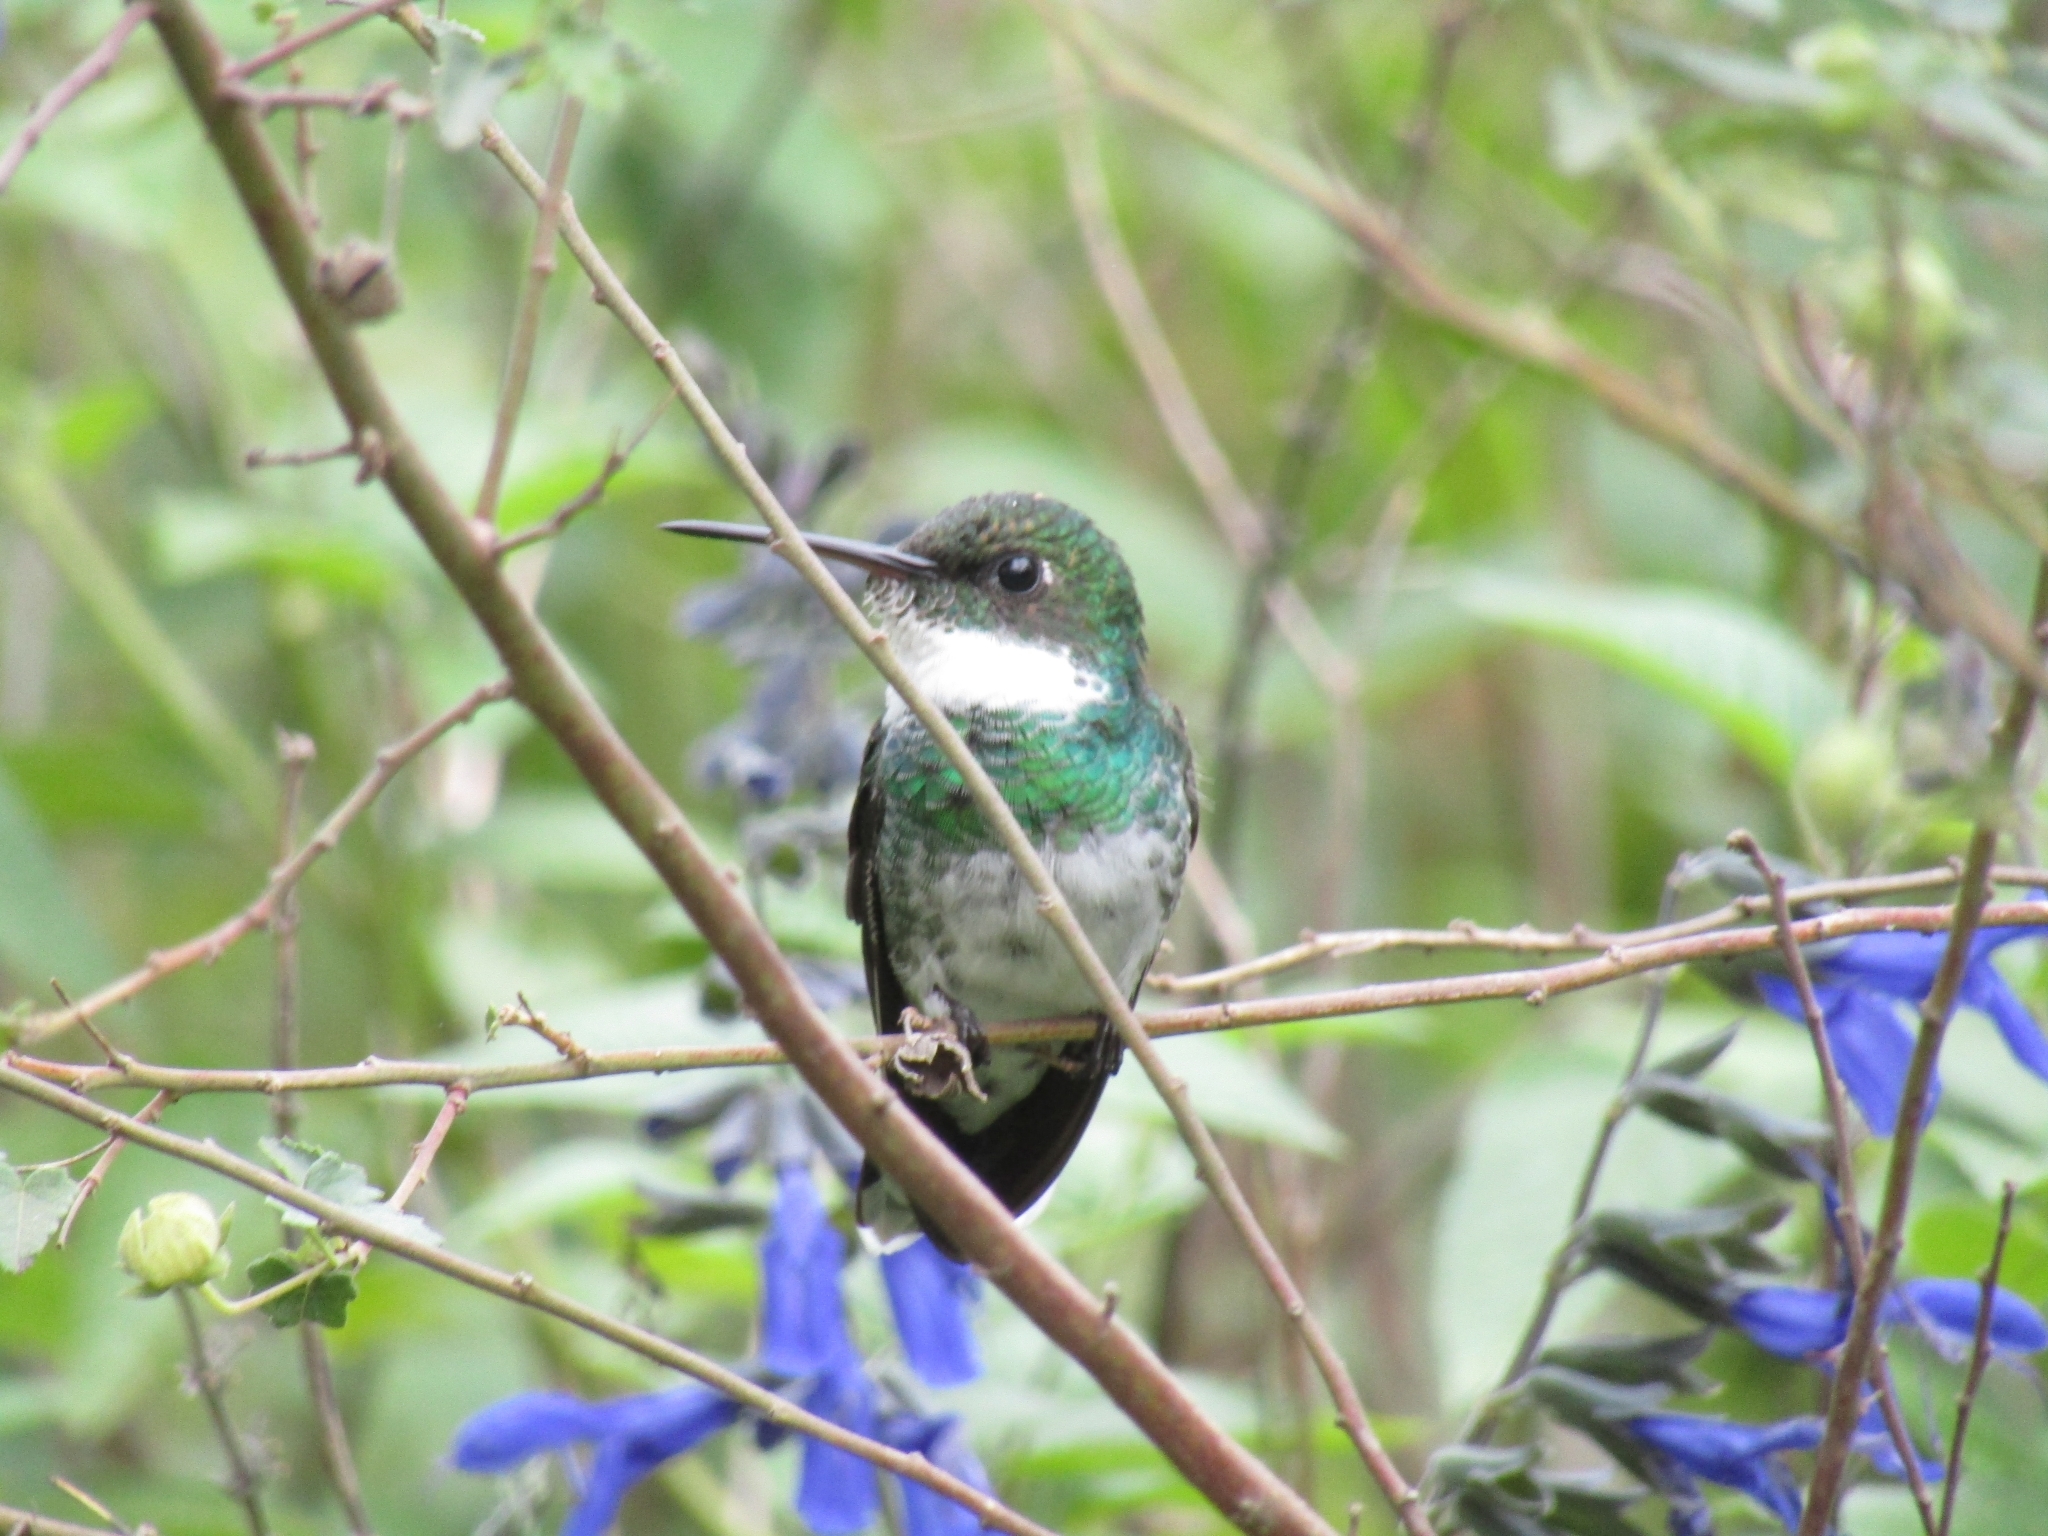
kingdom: Animalia
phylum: Chordata
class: Aves
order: Apodiformes
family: Trochilidae
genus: Leucochloris
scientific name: Leucochloris albicollis
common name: White-throated hummingbird
